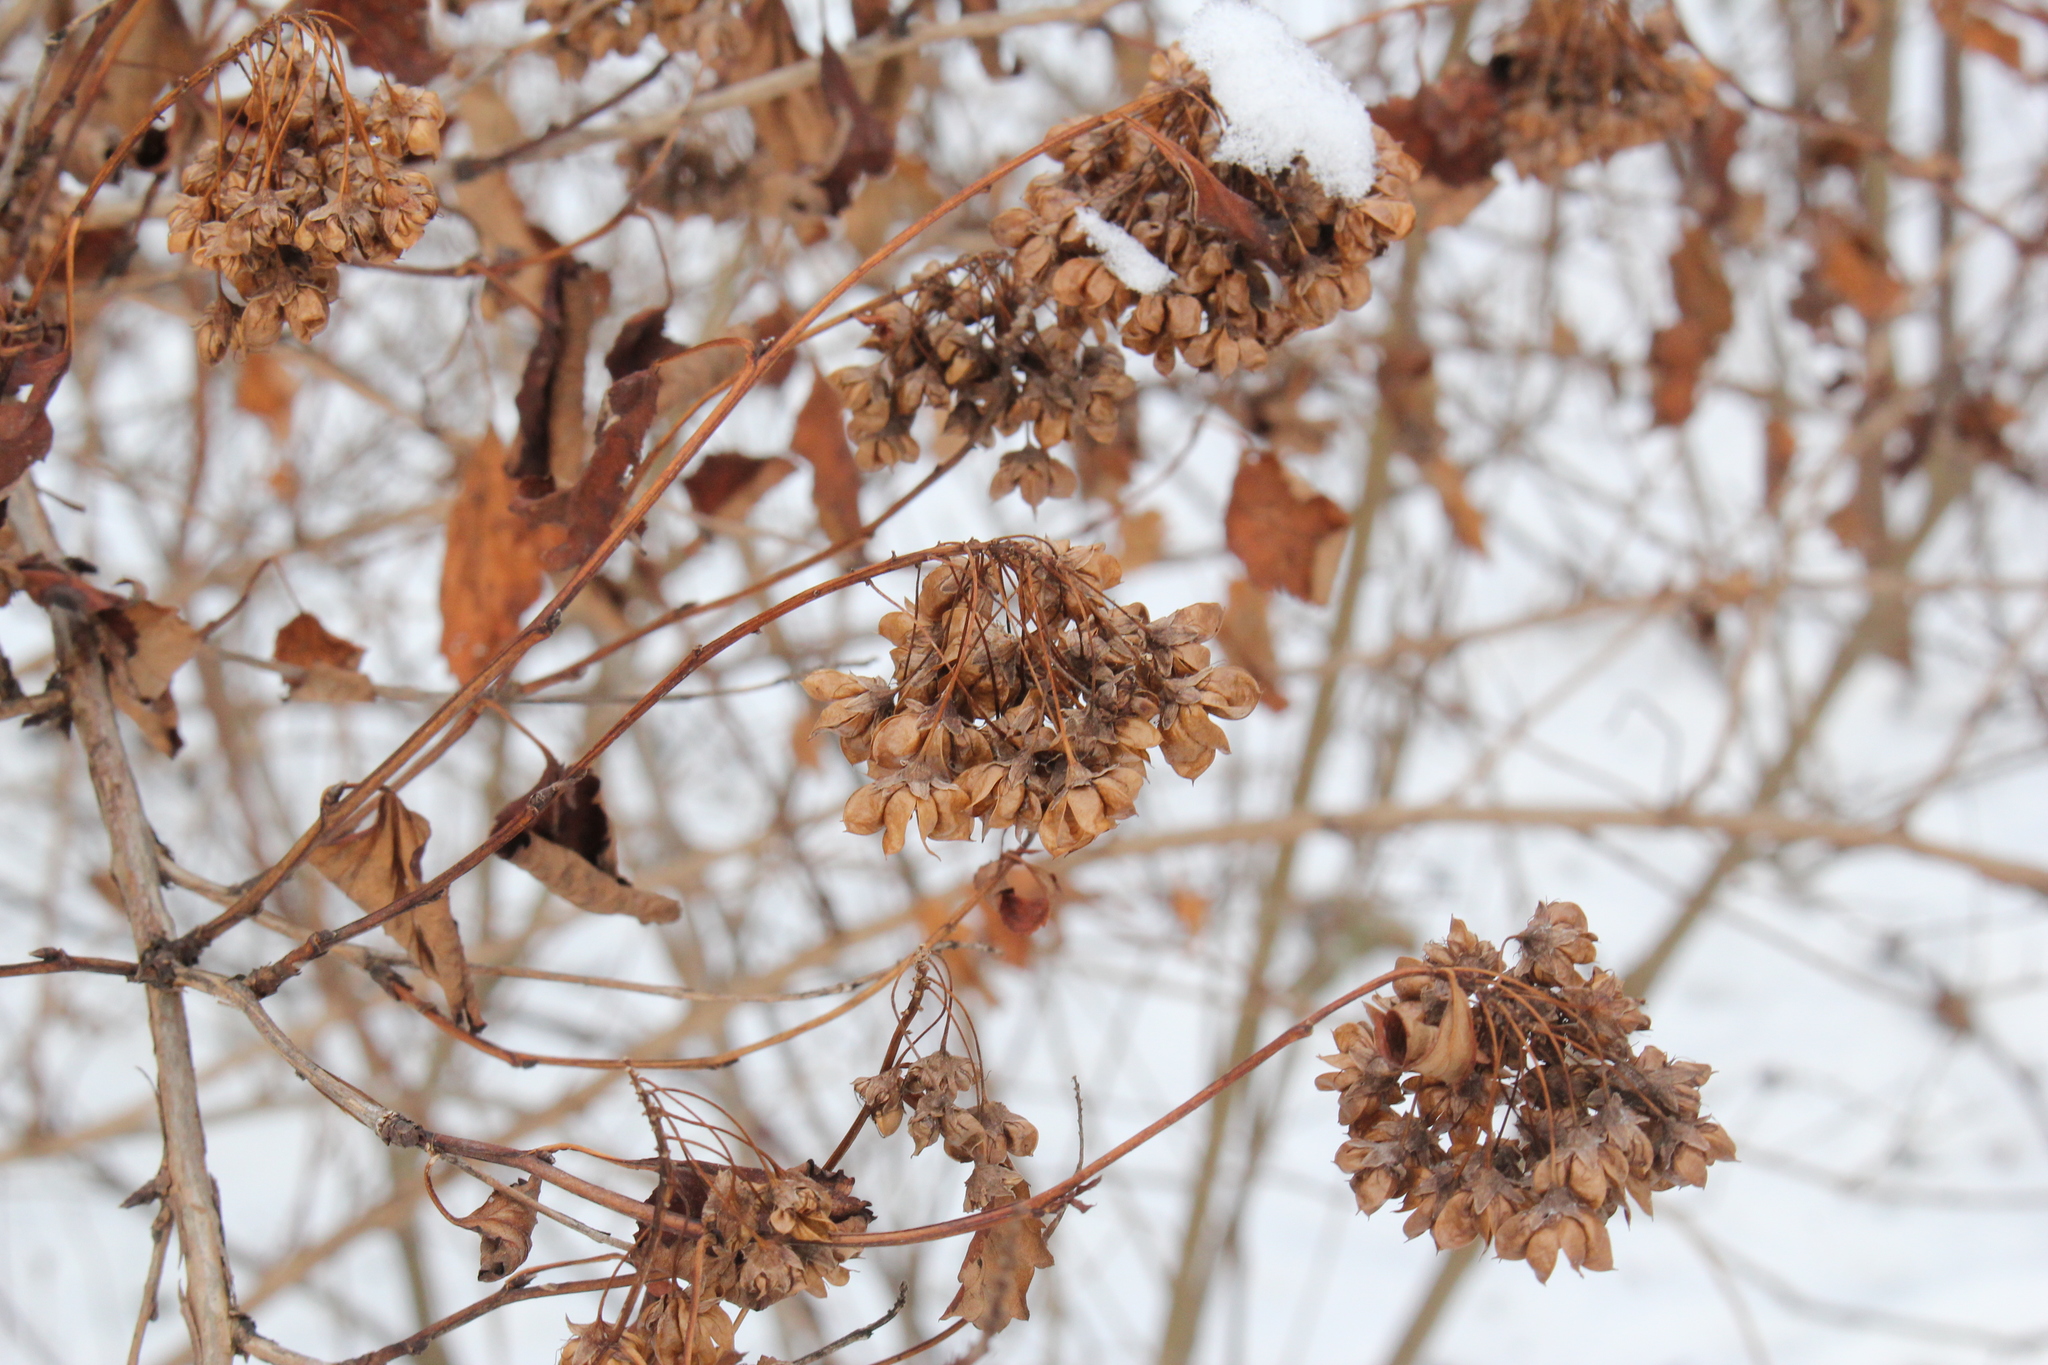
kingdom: Plantae
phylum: Tracheophyta
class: Magnoliopsida
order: Rosales
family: Rosaceae
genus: Physocarpus
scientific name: Physocarpus opulifolius
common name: Ninebark
